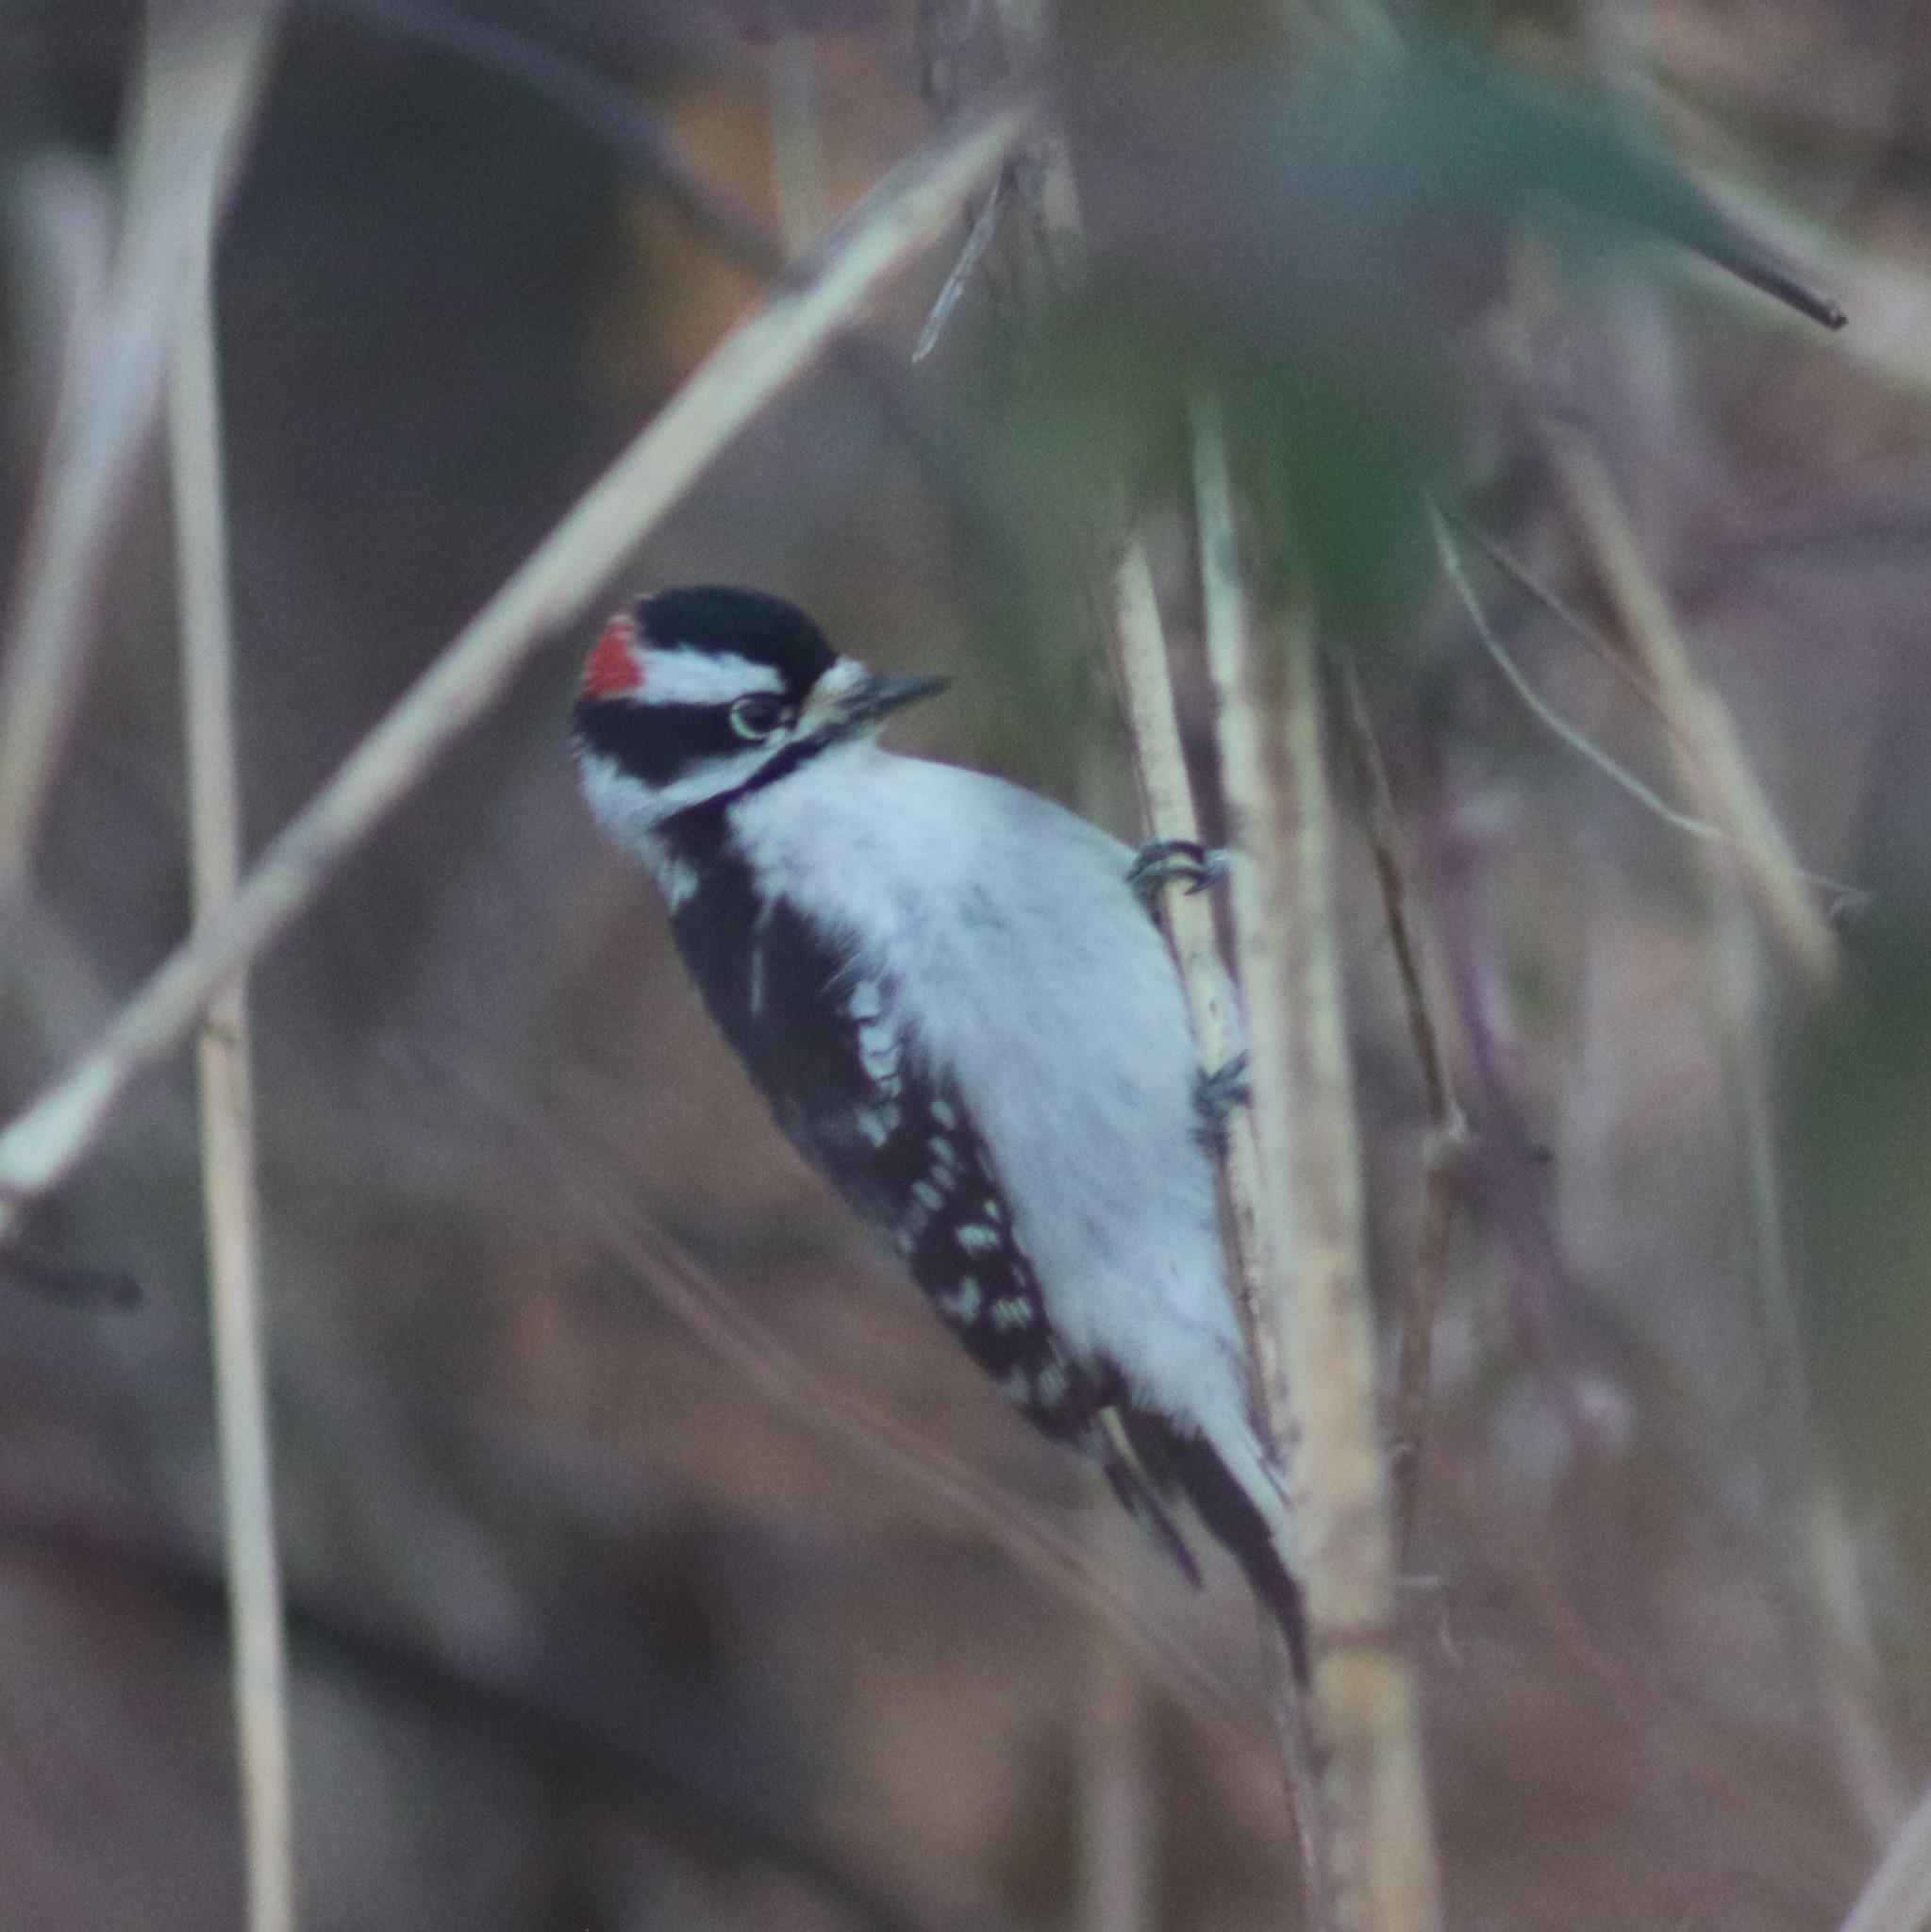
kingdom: Animalia
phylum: Chordata
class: Aves
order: Piciformes
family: Picidae
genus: Dryobates
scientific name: Dryobates pubescens
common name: Downy woodpecker
